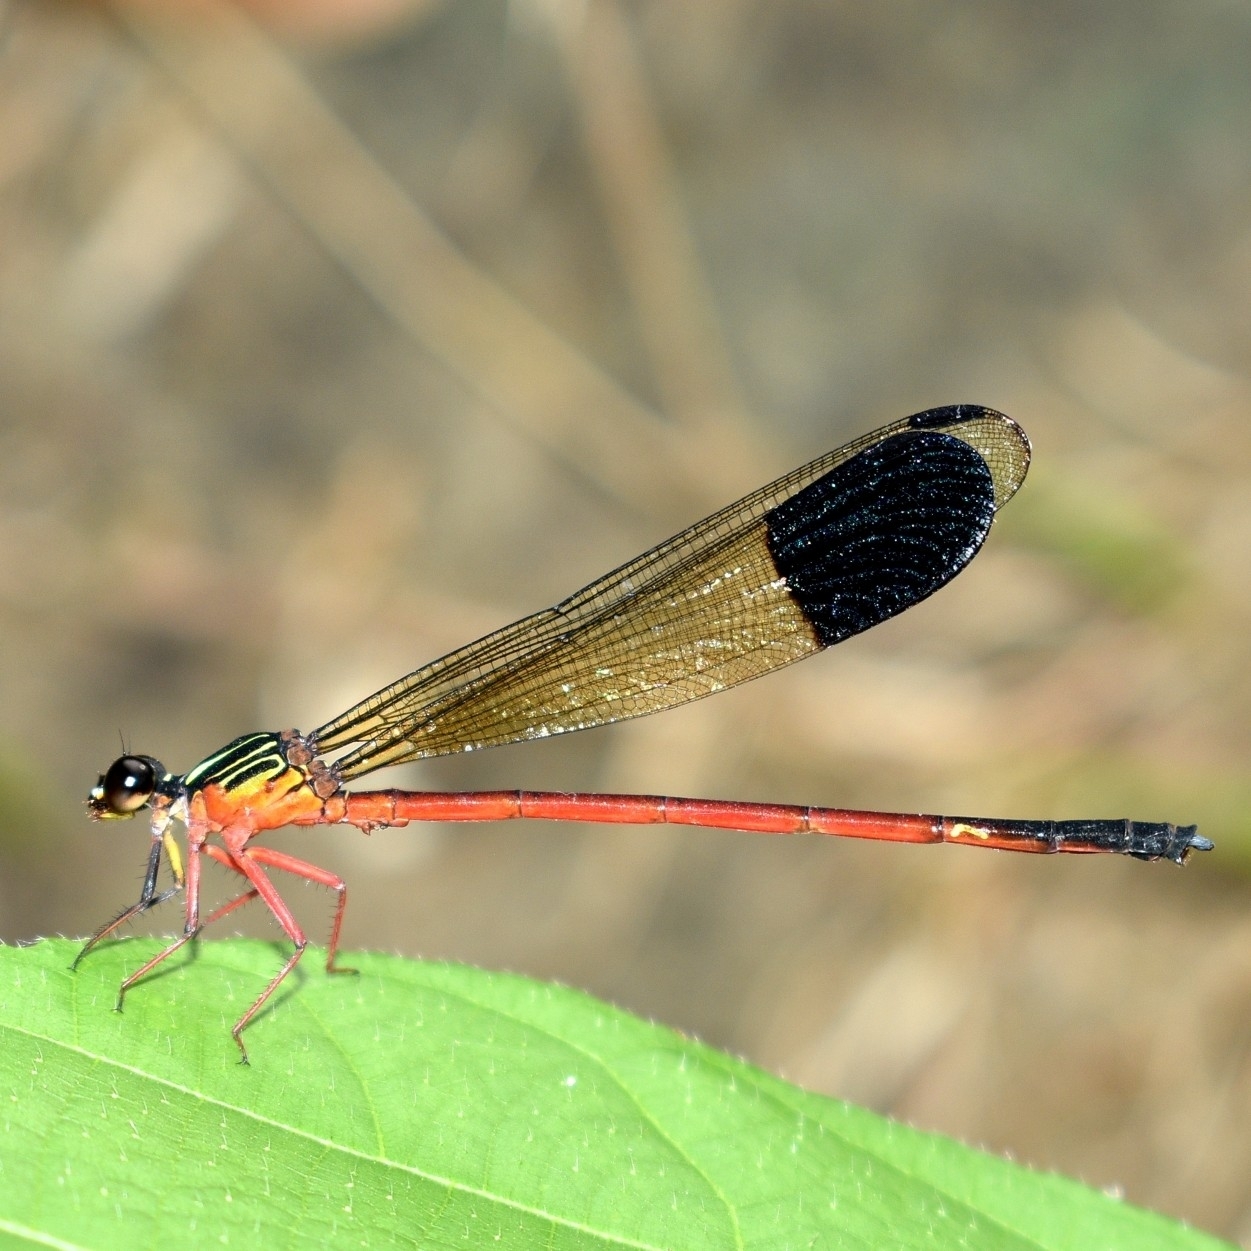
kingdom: Animalia
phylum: Arthropoda
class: Insecta
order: Odonata
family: Euphaeidae
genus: Euphaea
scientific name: Euphaea fraseri
